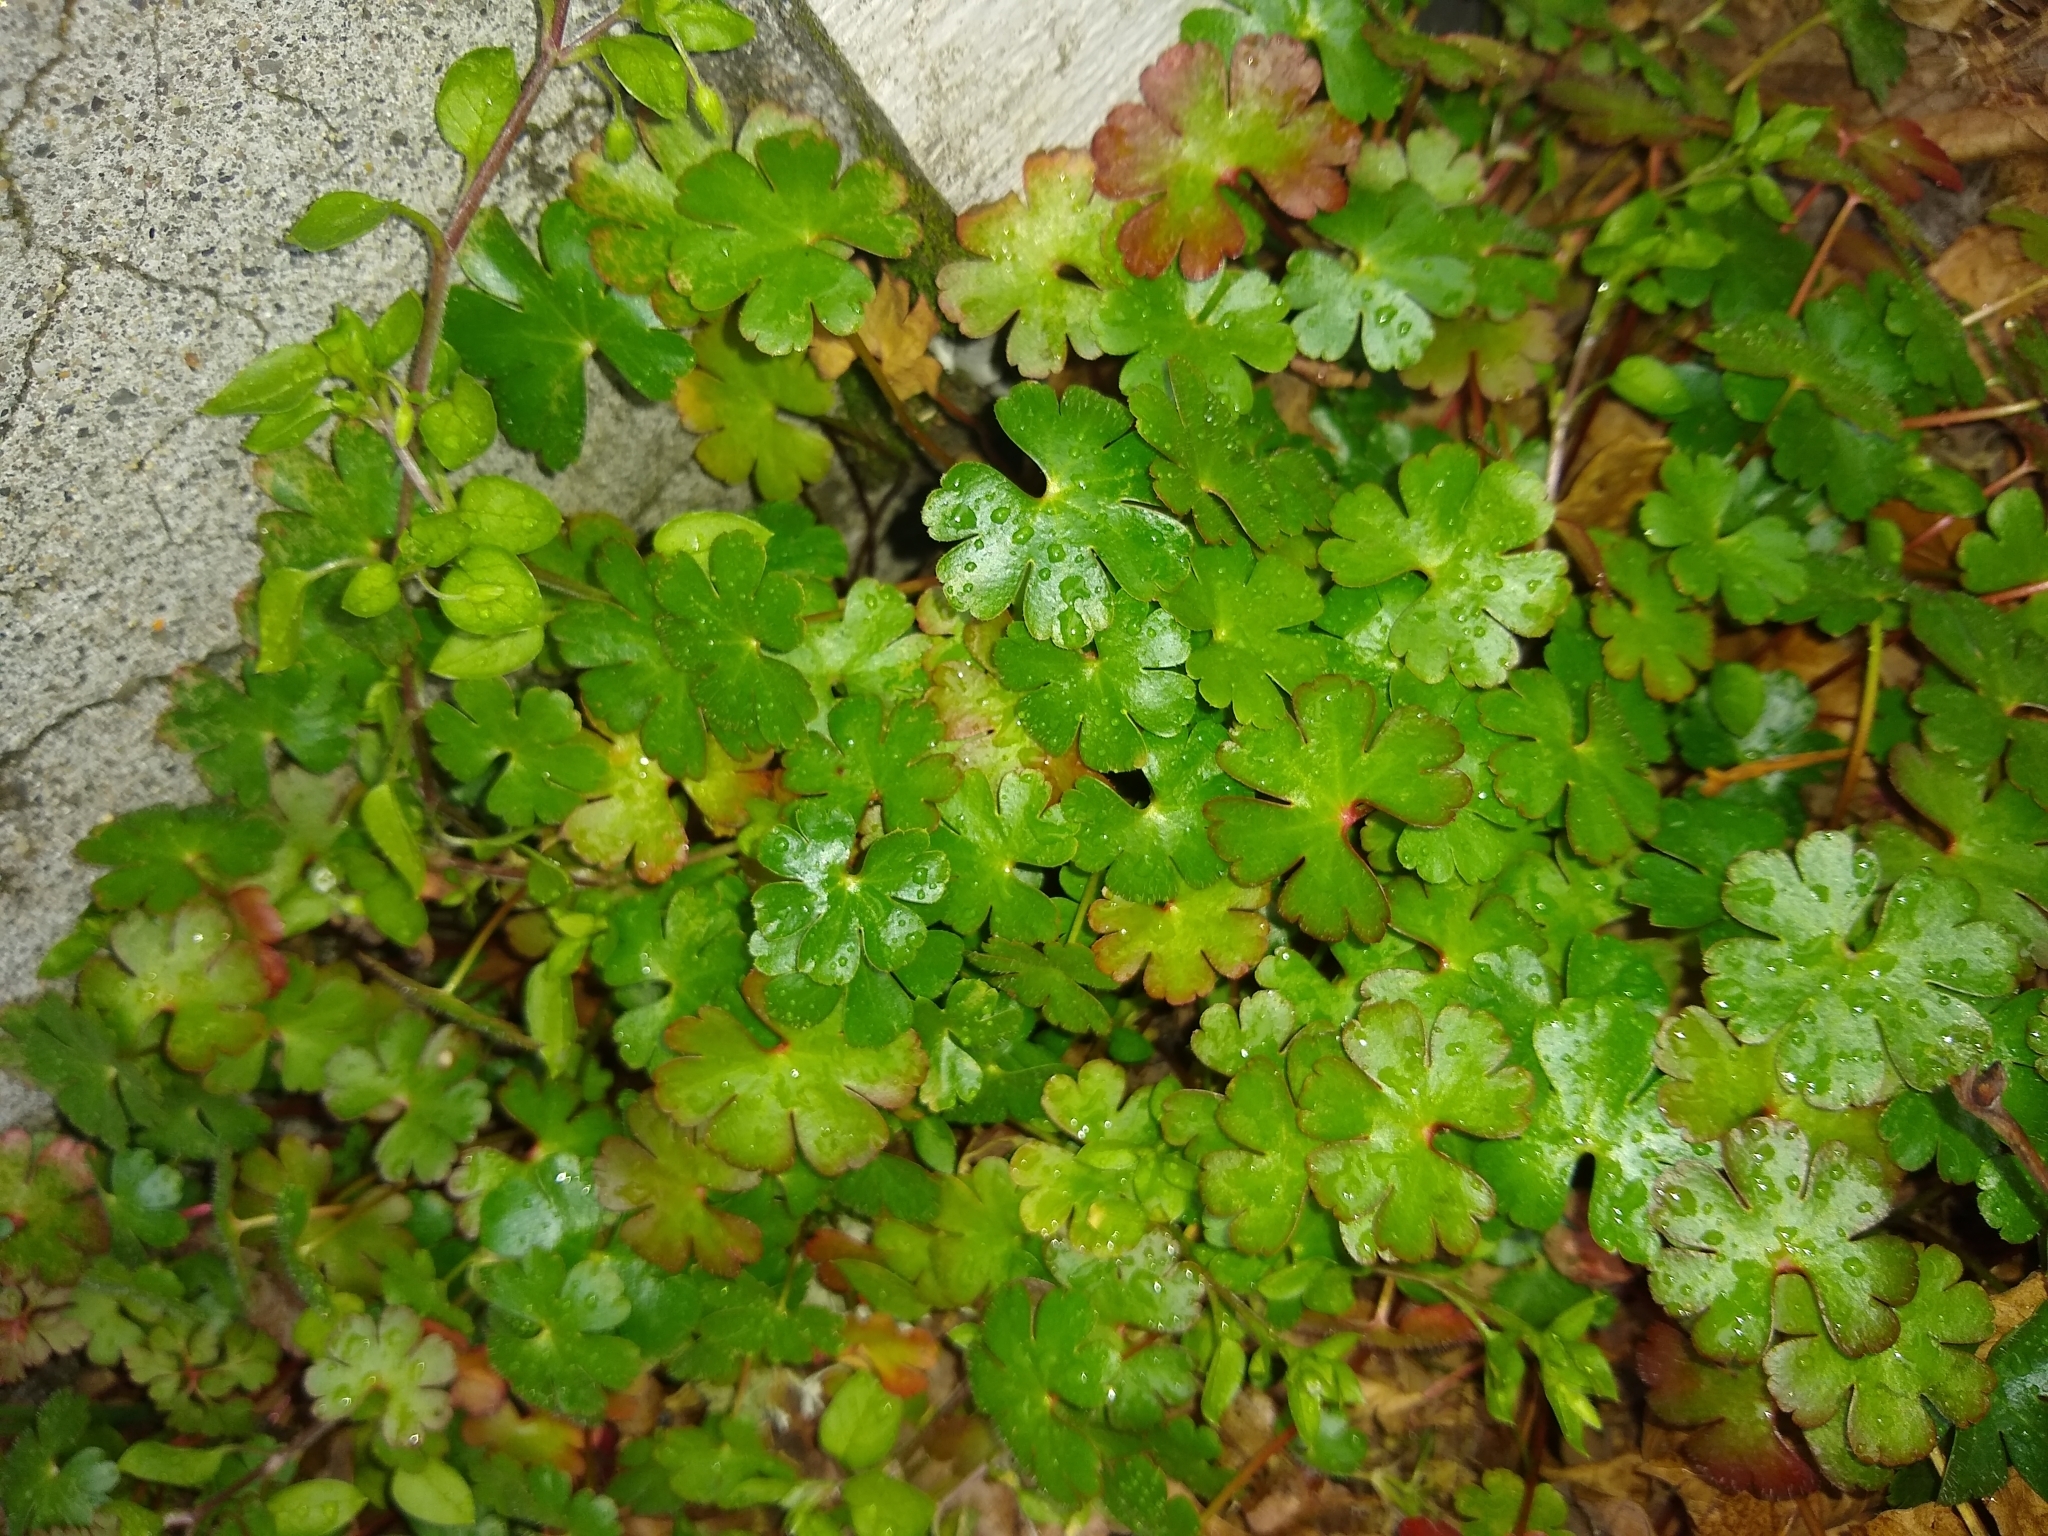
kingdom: Plantae
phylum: Tracheophyta
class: Magnoliopsida
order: Geraniales
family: Geraniaceae
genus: Geranium
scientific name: Geranium lucidum
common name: Shining crane's-bill
